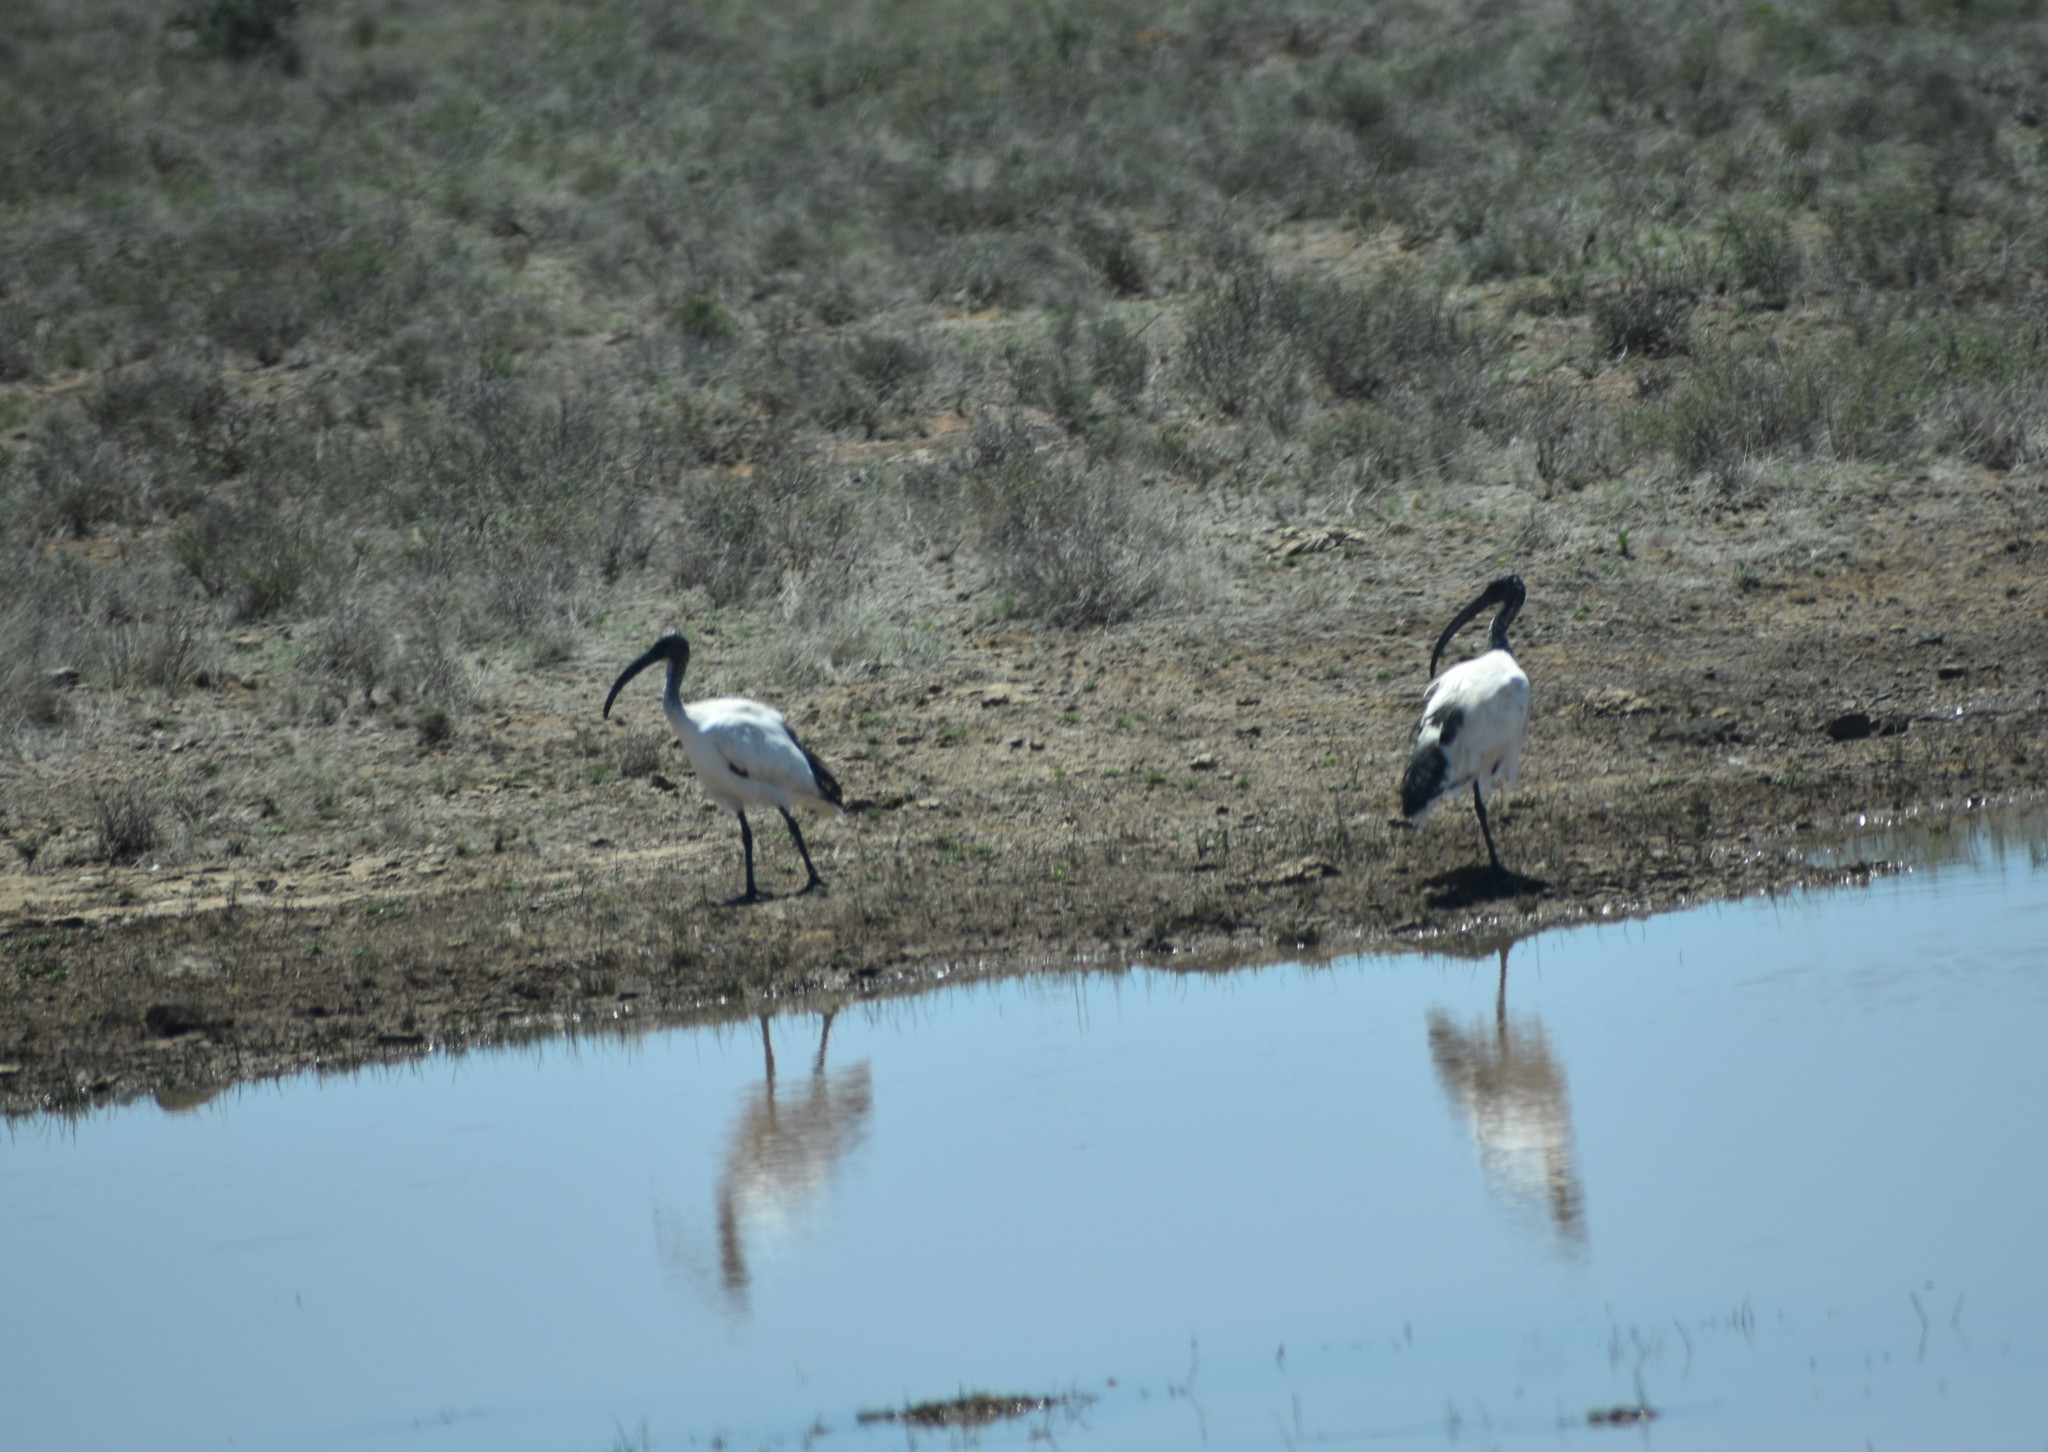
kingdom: Animalia
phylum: Chordata
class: Aves
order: Pelecaniformes
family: Threskiornithidae
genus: Threskiornis
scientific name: Threskiornis aethiopicus
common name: Sacred ibis
